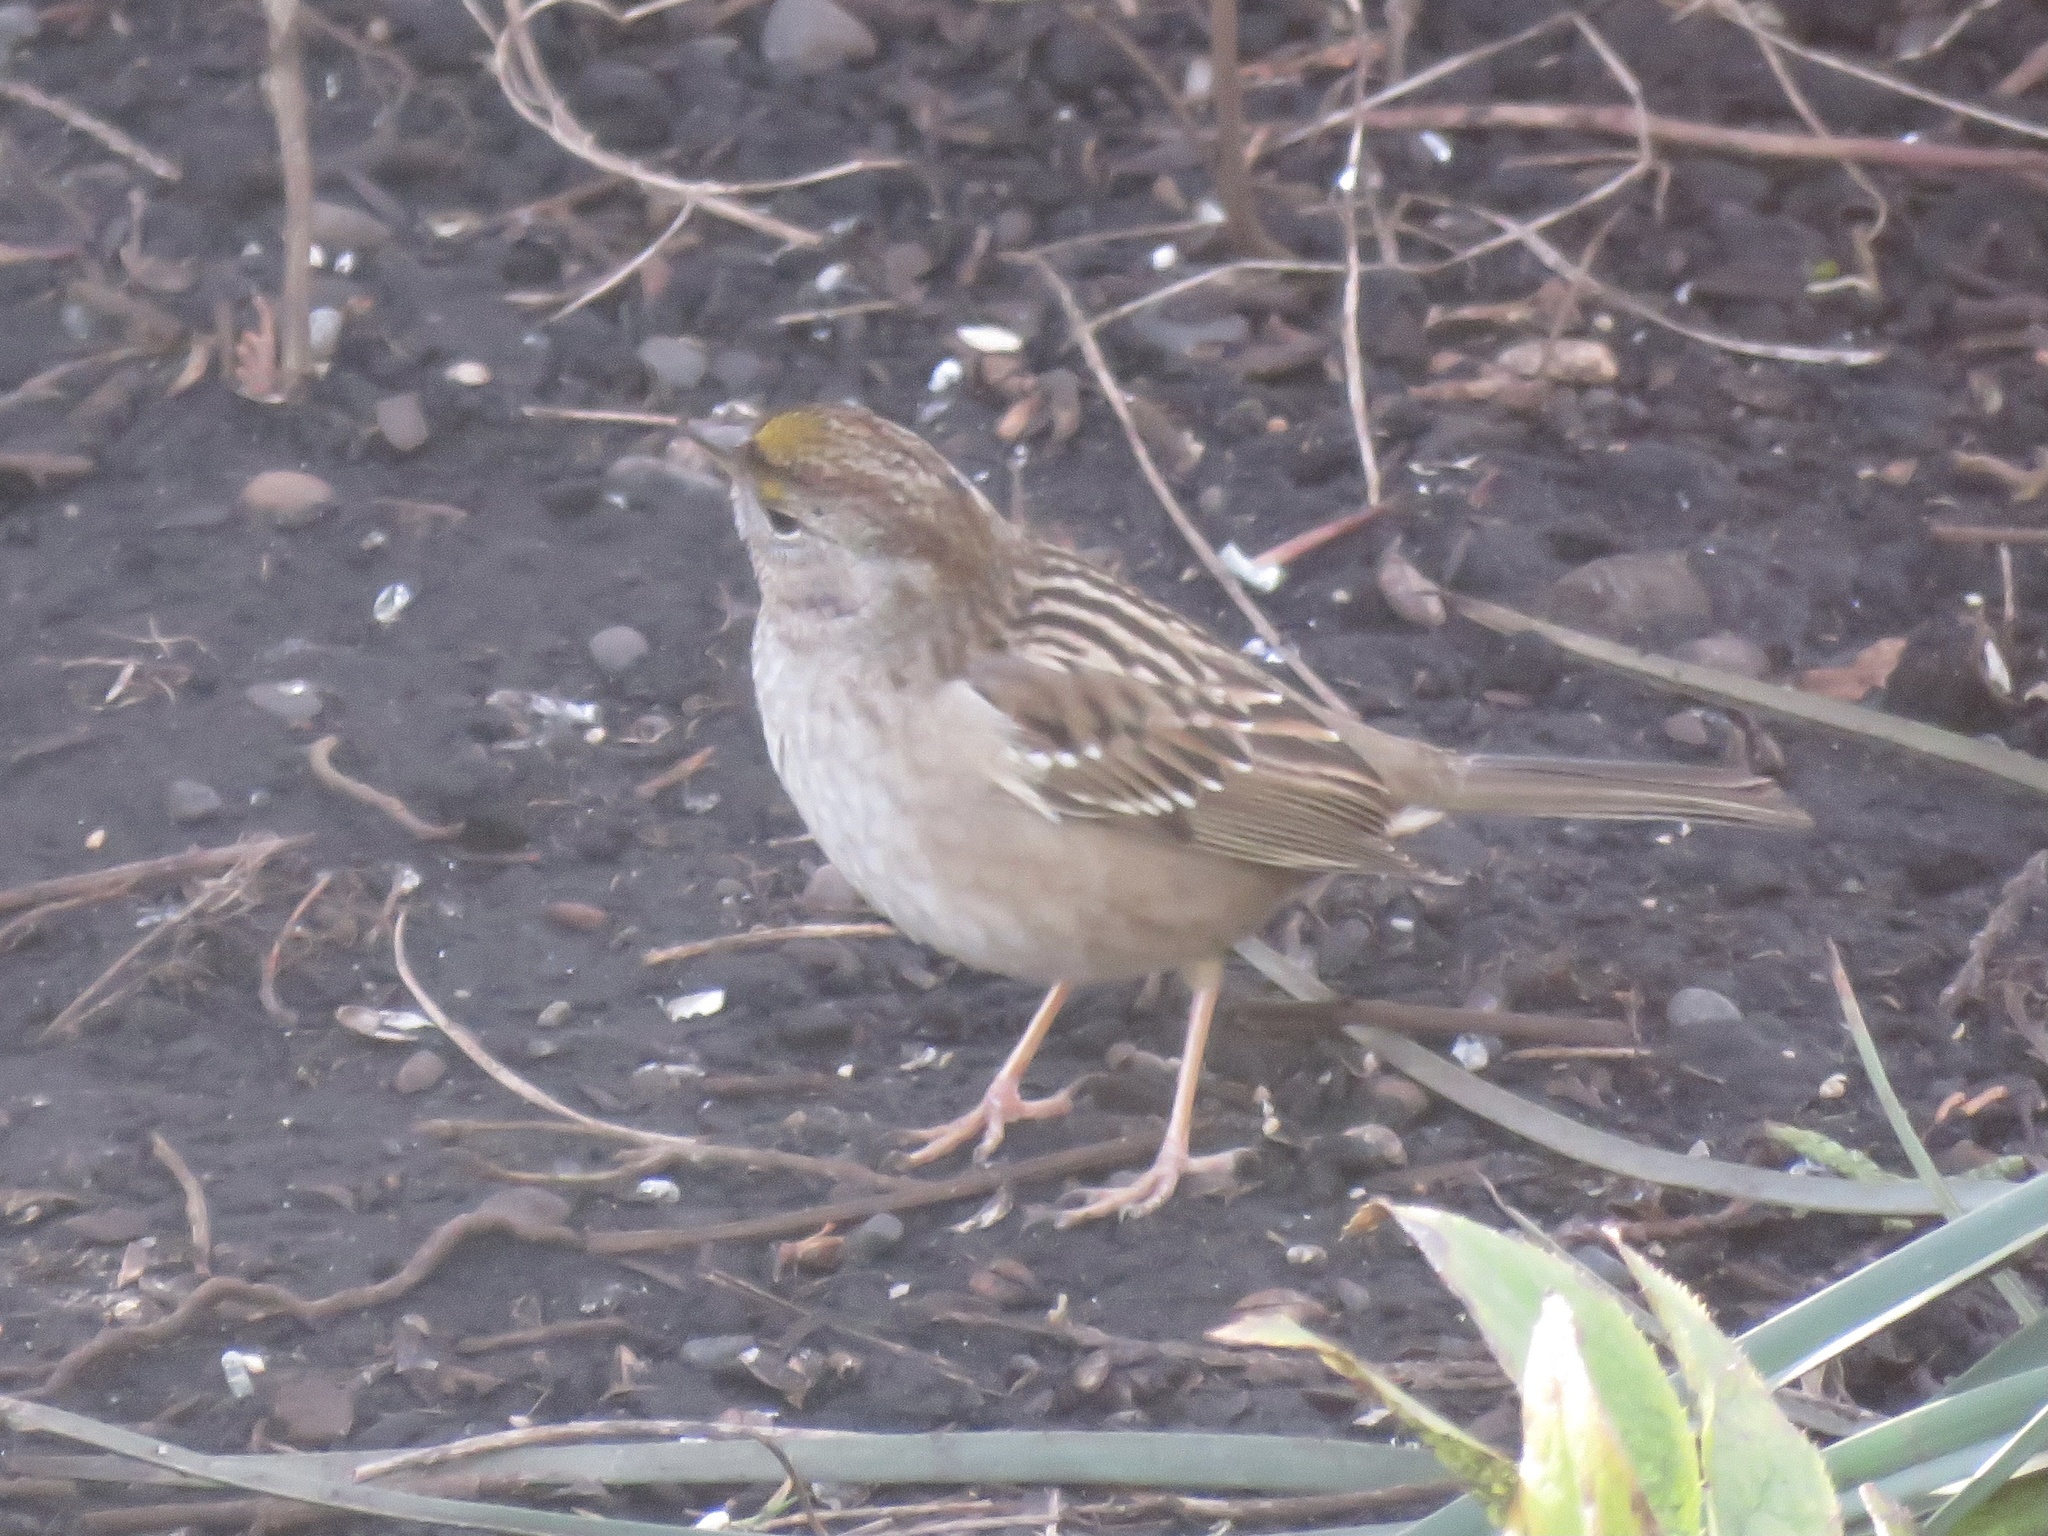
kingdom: Animalia
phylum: Chordata
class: Aves
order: Passeriformes
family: Passerellidae
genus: Zonotrichia
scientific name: Zonotrichia atricapilla
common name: Golden-crowned sparrow
